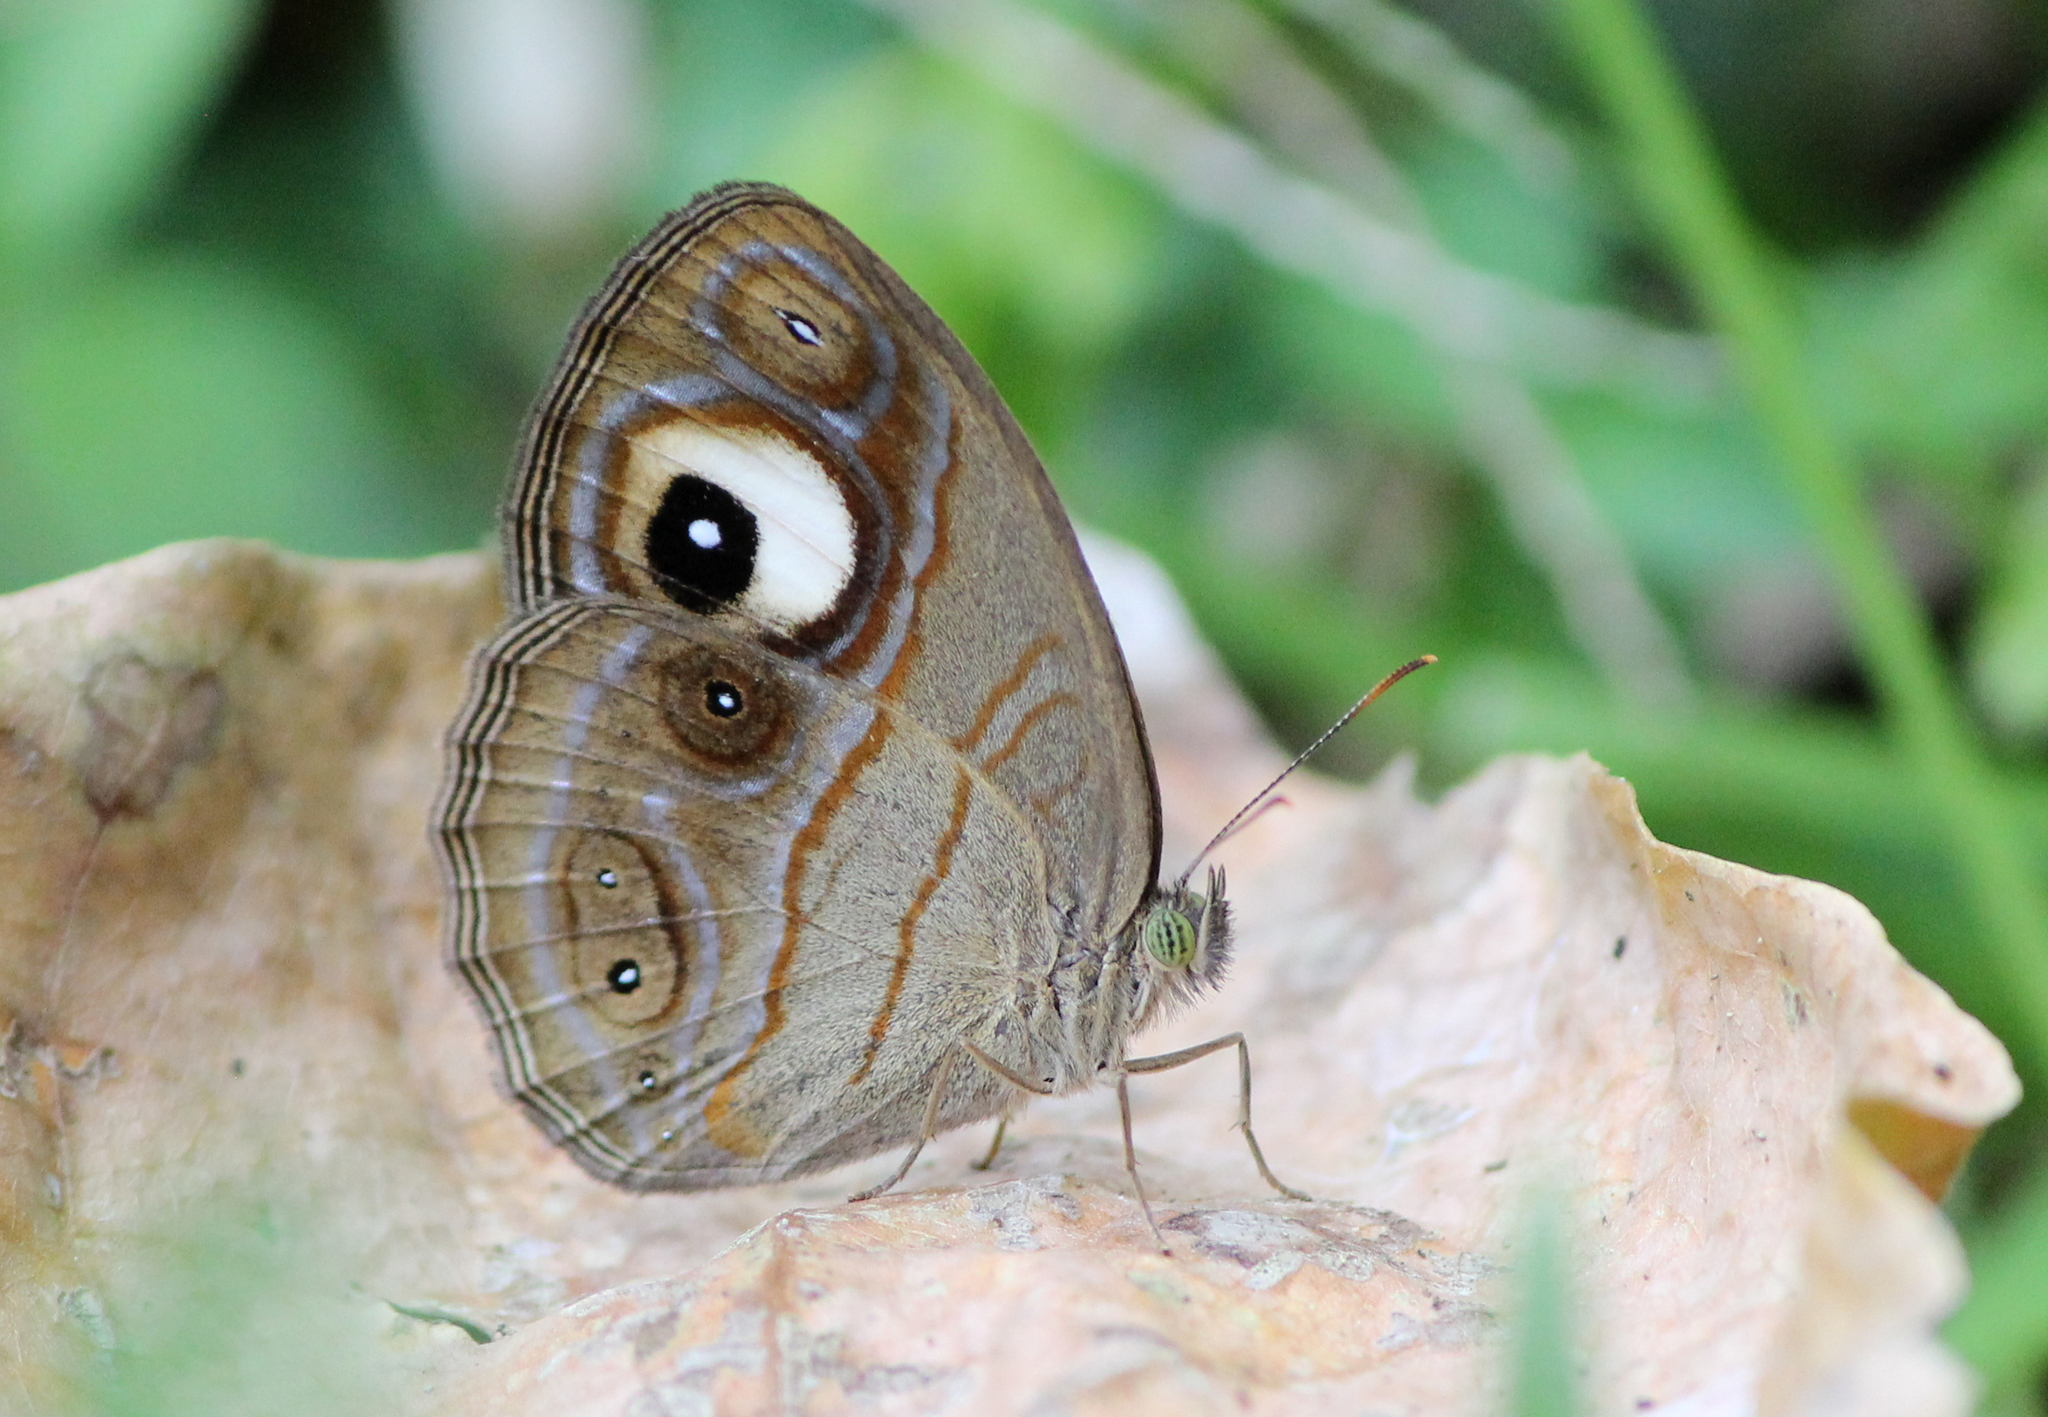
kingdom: Animalia
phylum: Arthropoda
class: Insecta
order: Lepidoptera
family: Nymphalidae
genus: Mycalesis
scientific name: Mycalesis patnia
